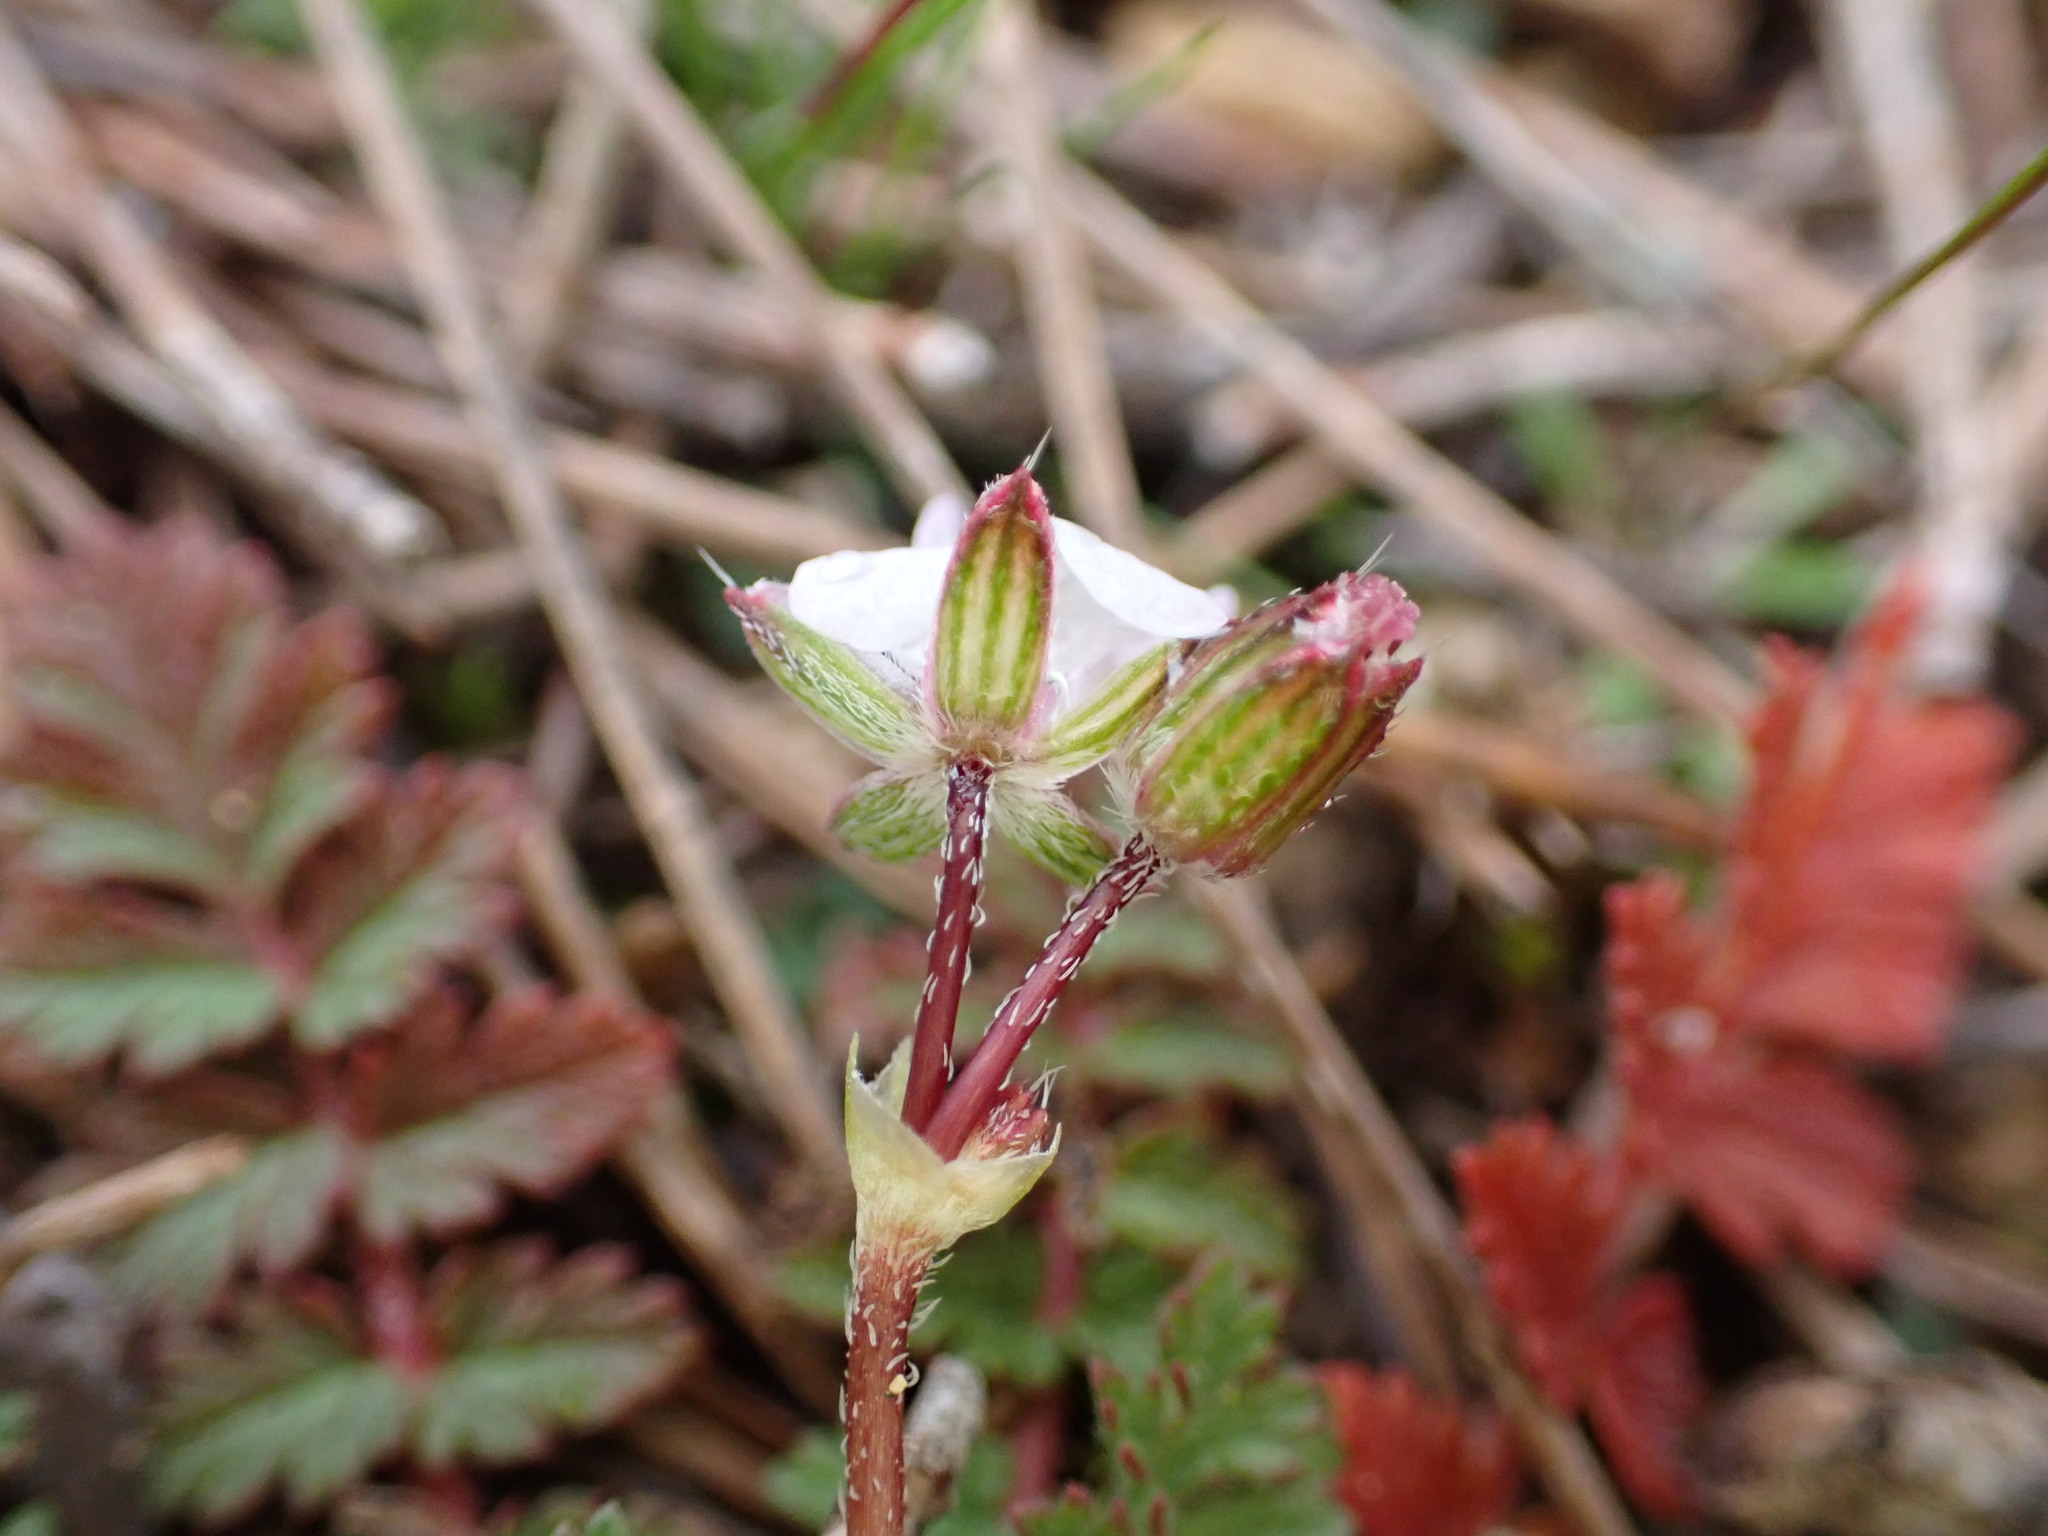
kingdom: Plantae
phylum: Tracheophyta
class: Magnoliopsida
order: Geraniales
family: Geraniaceae
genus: Erodium
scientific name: Erodium cicutarium
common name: Common stork's-bill
